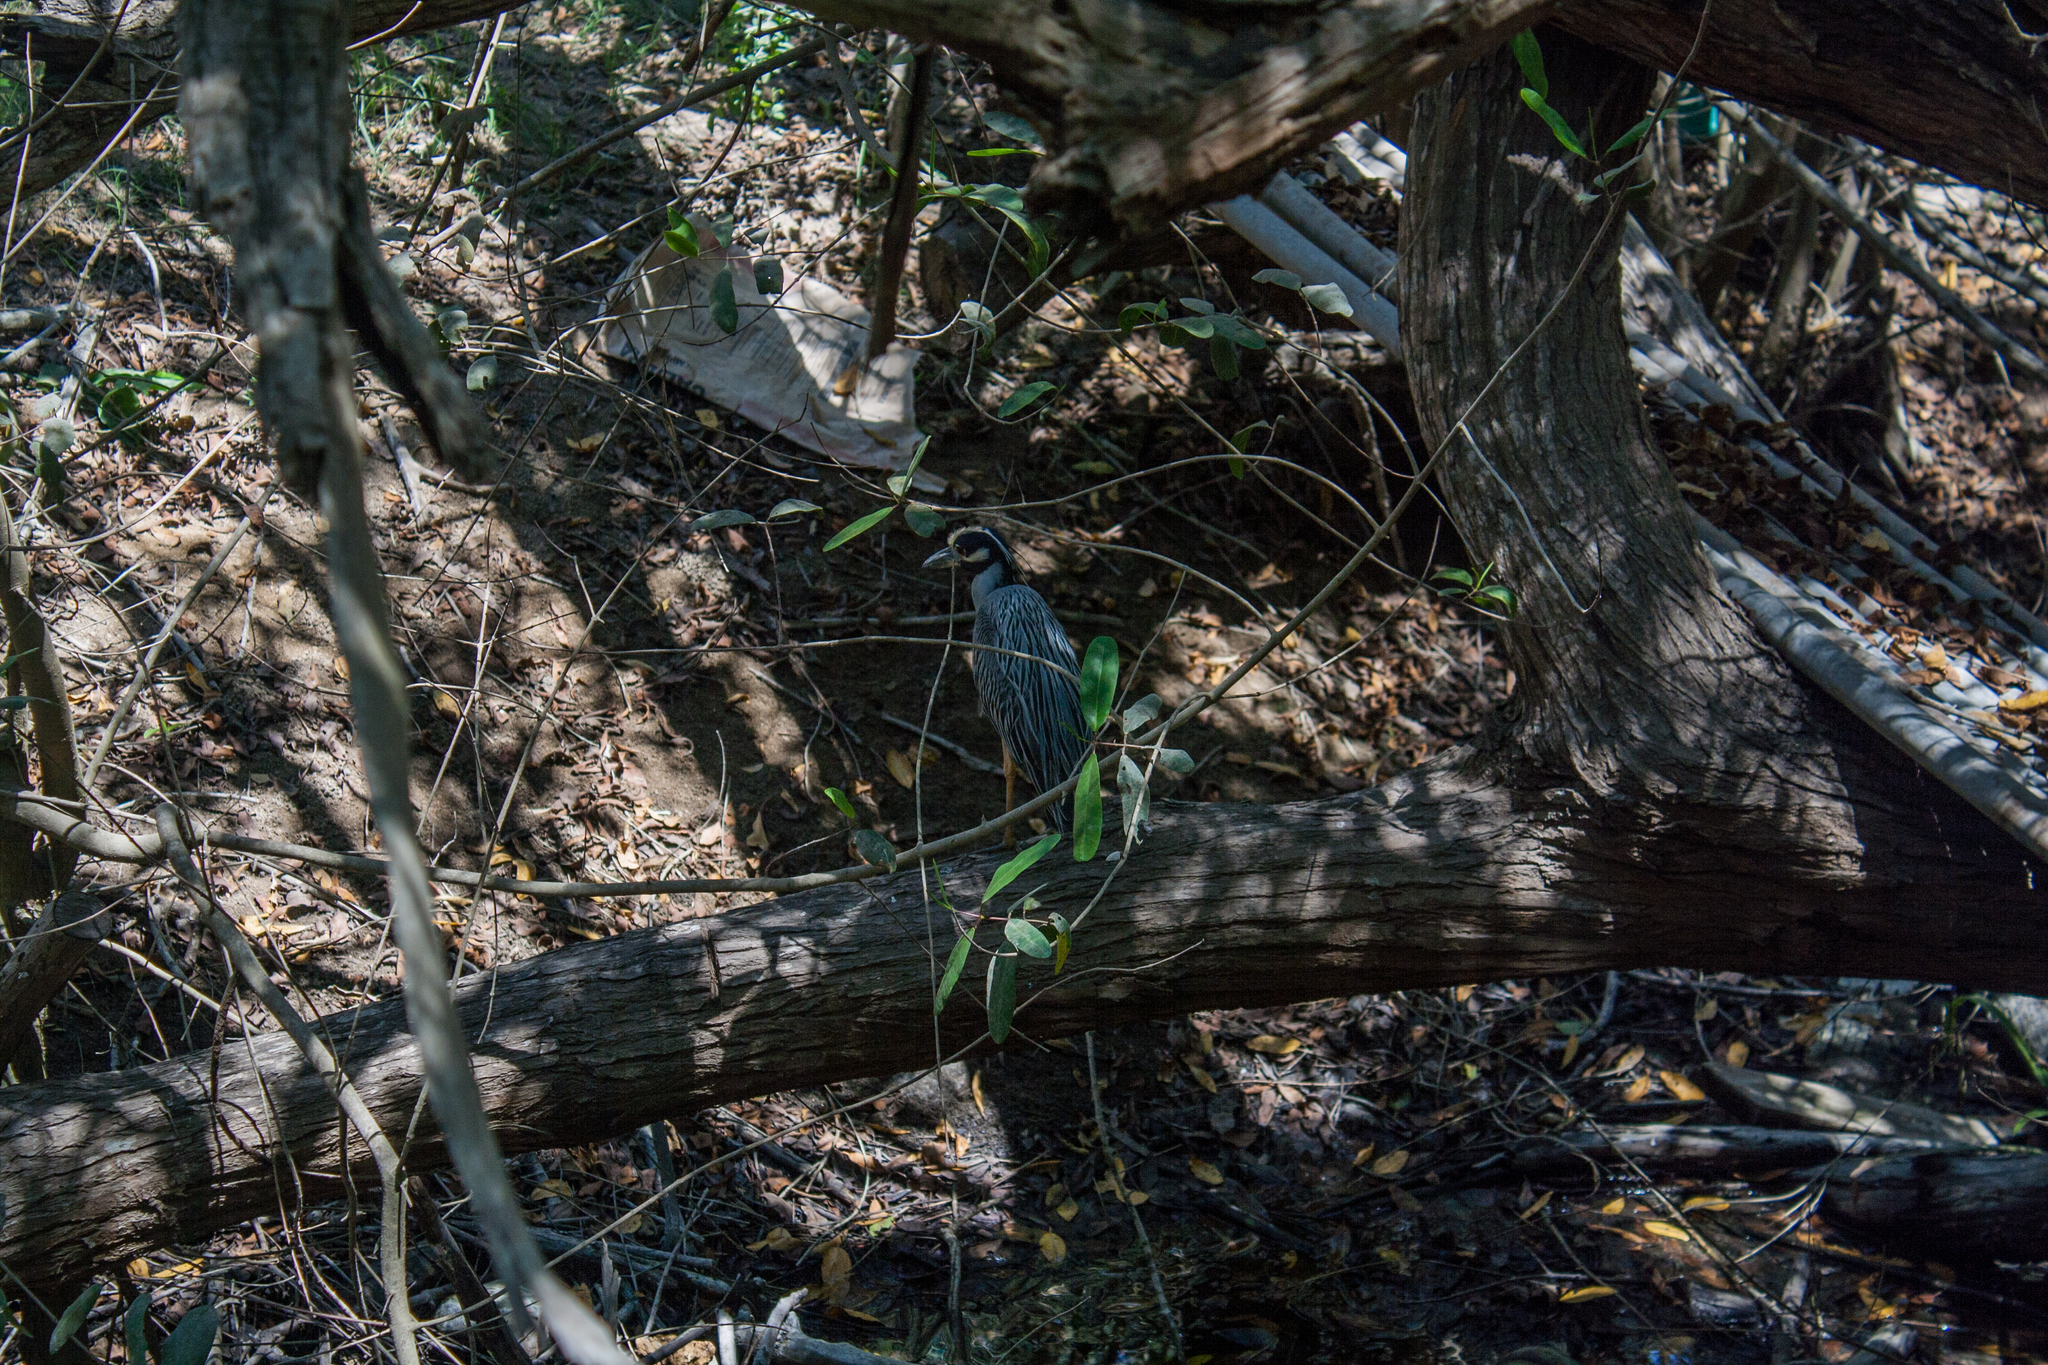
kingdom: Animalia
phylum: Chordata
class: Aves
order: Pelecaniformes
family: Ardeidae
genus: Nyctanassa
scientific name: Nyctanassa violacea
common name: Yellow-crowned night heron
